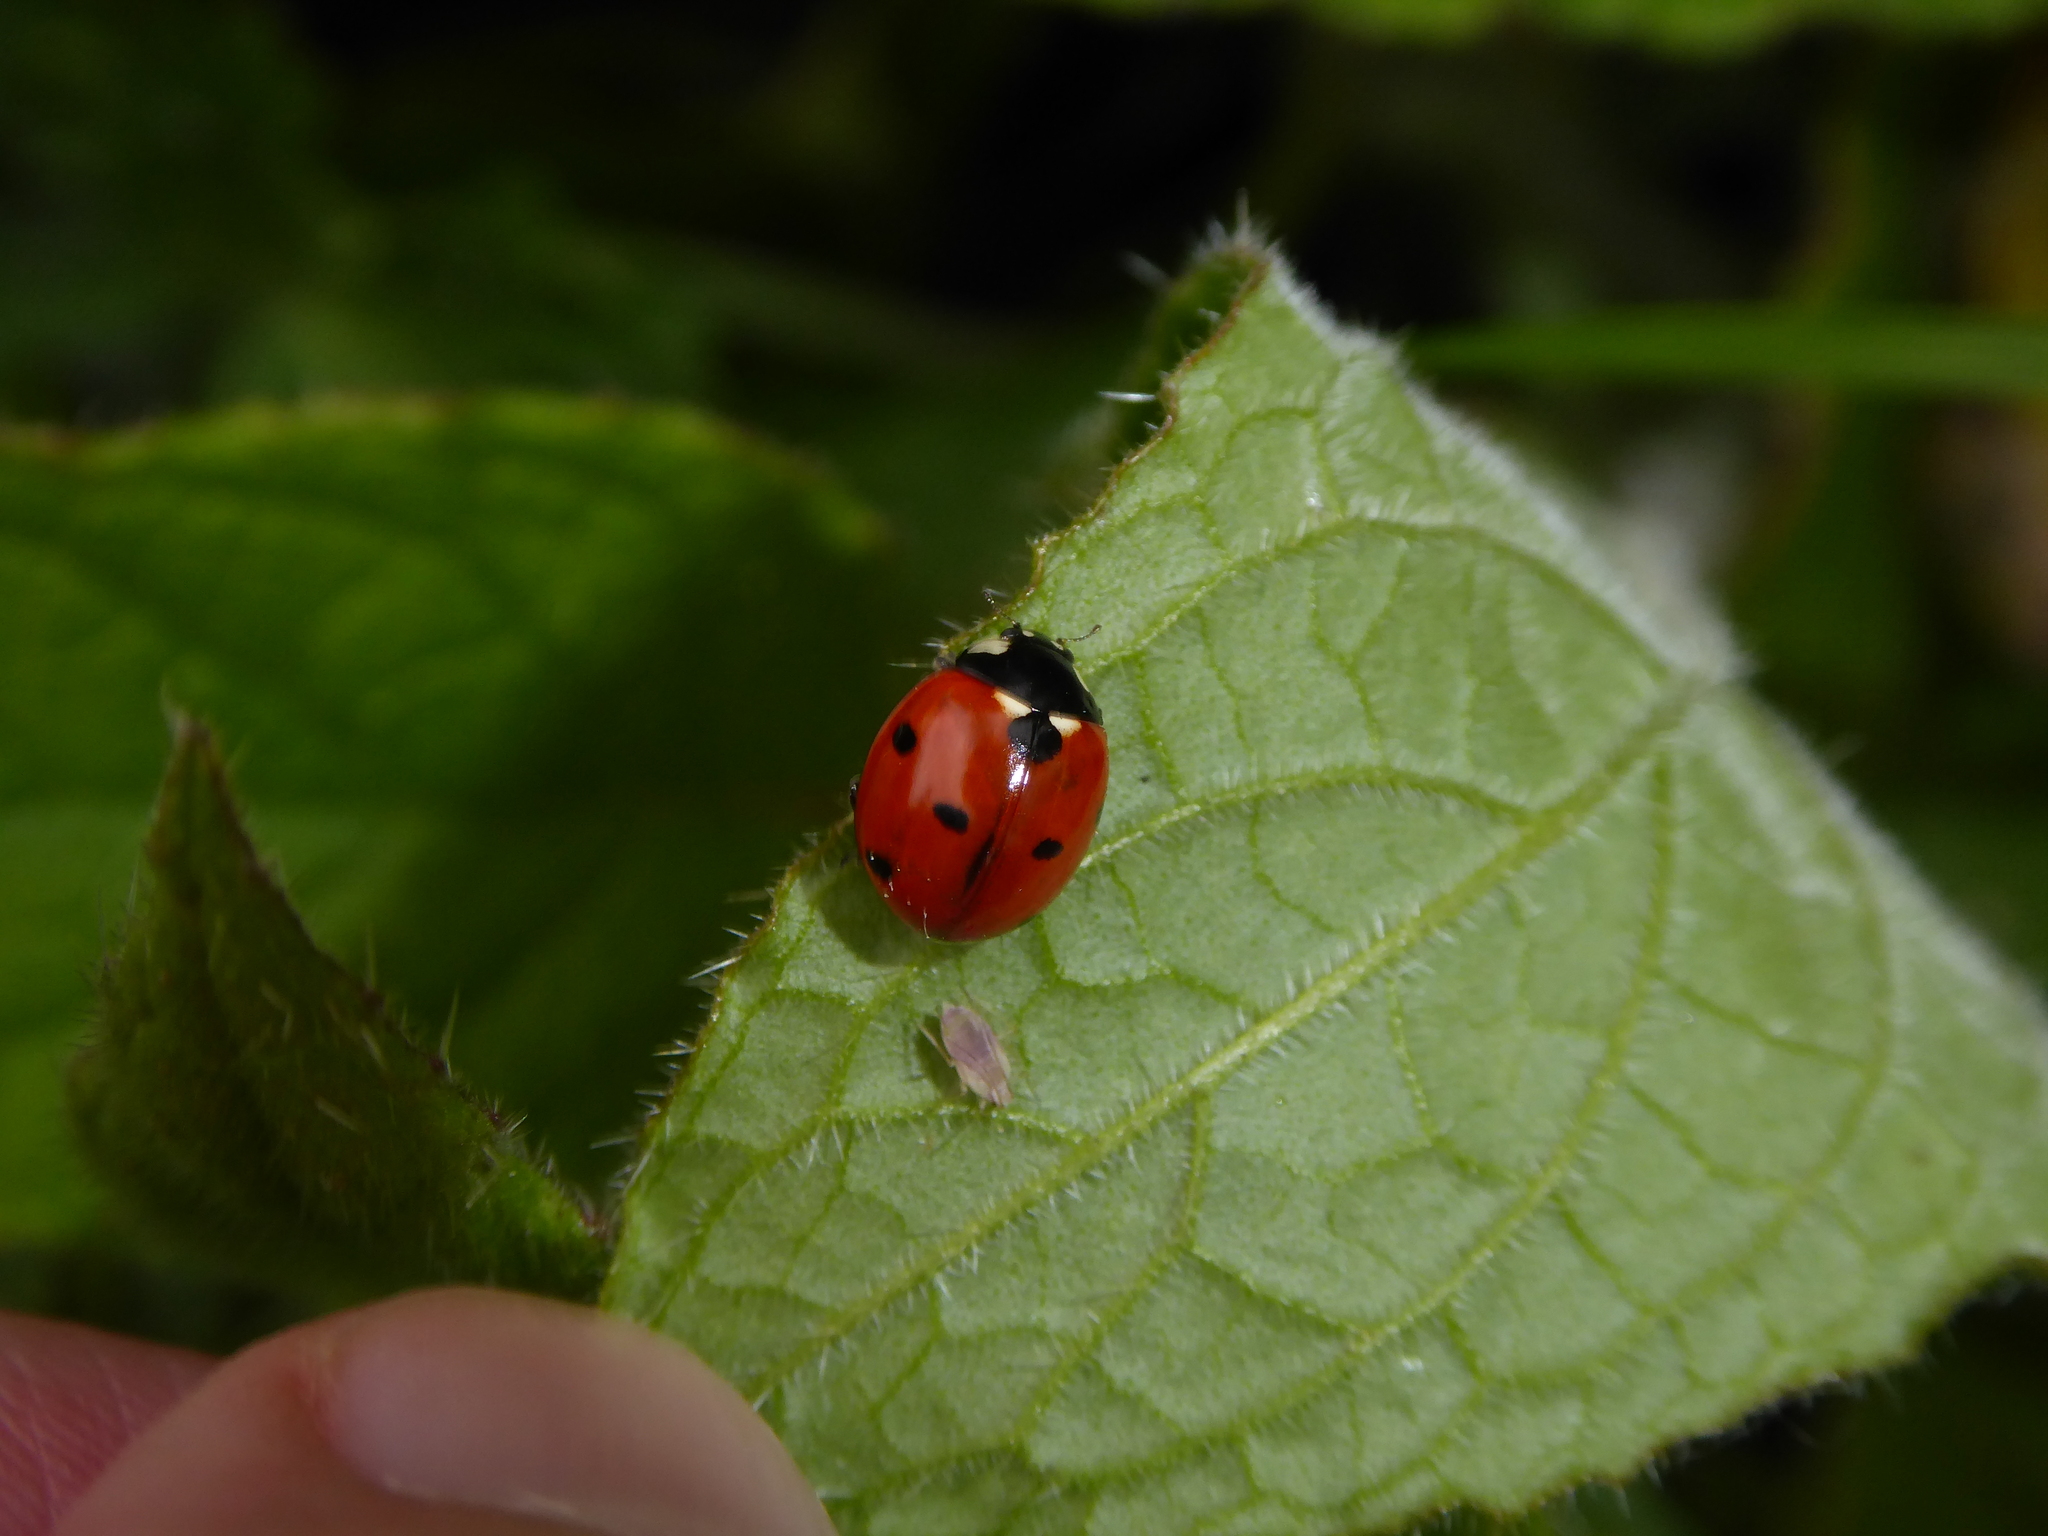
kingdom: Animalia
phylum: Arthropoda
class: Insecta
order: Coleoptera
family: Coccinellidae
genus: Coccinella
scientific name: Coccinella septempunctata
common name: Sevenspotted lady beetle
